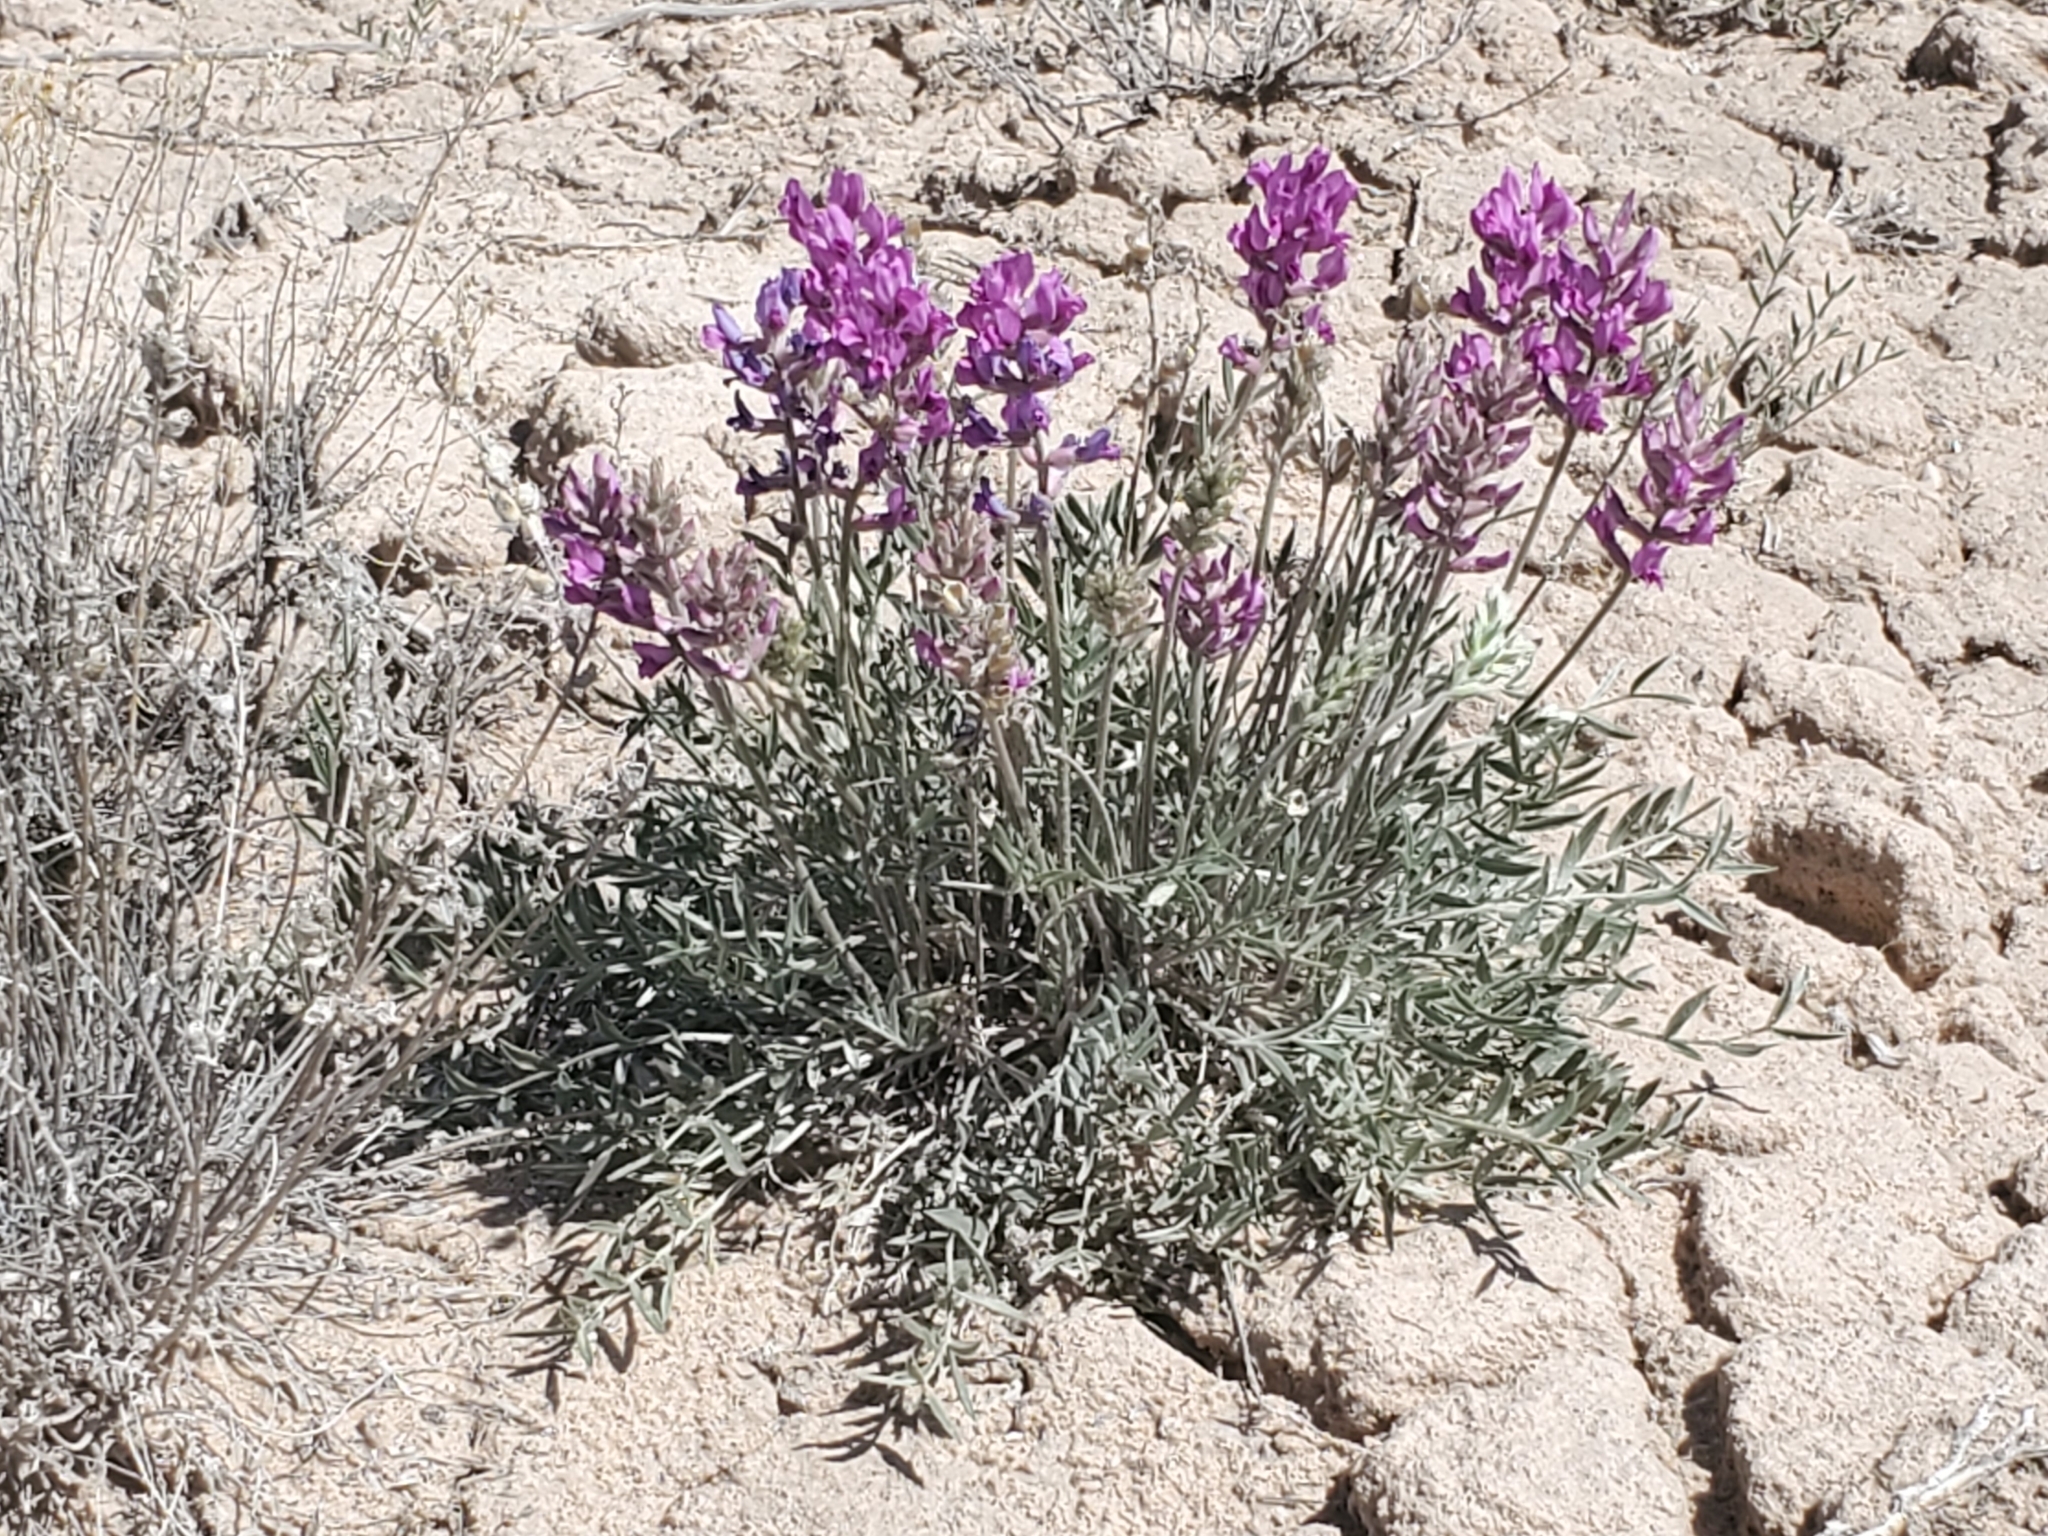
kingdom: Plantae
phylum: Tracheophyta
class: Magnoliopsida
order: Fabales
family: Fabaceae
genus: Oxytropis
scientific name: Oxytropis lambertii
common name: Purple locoweed
